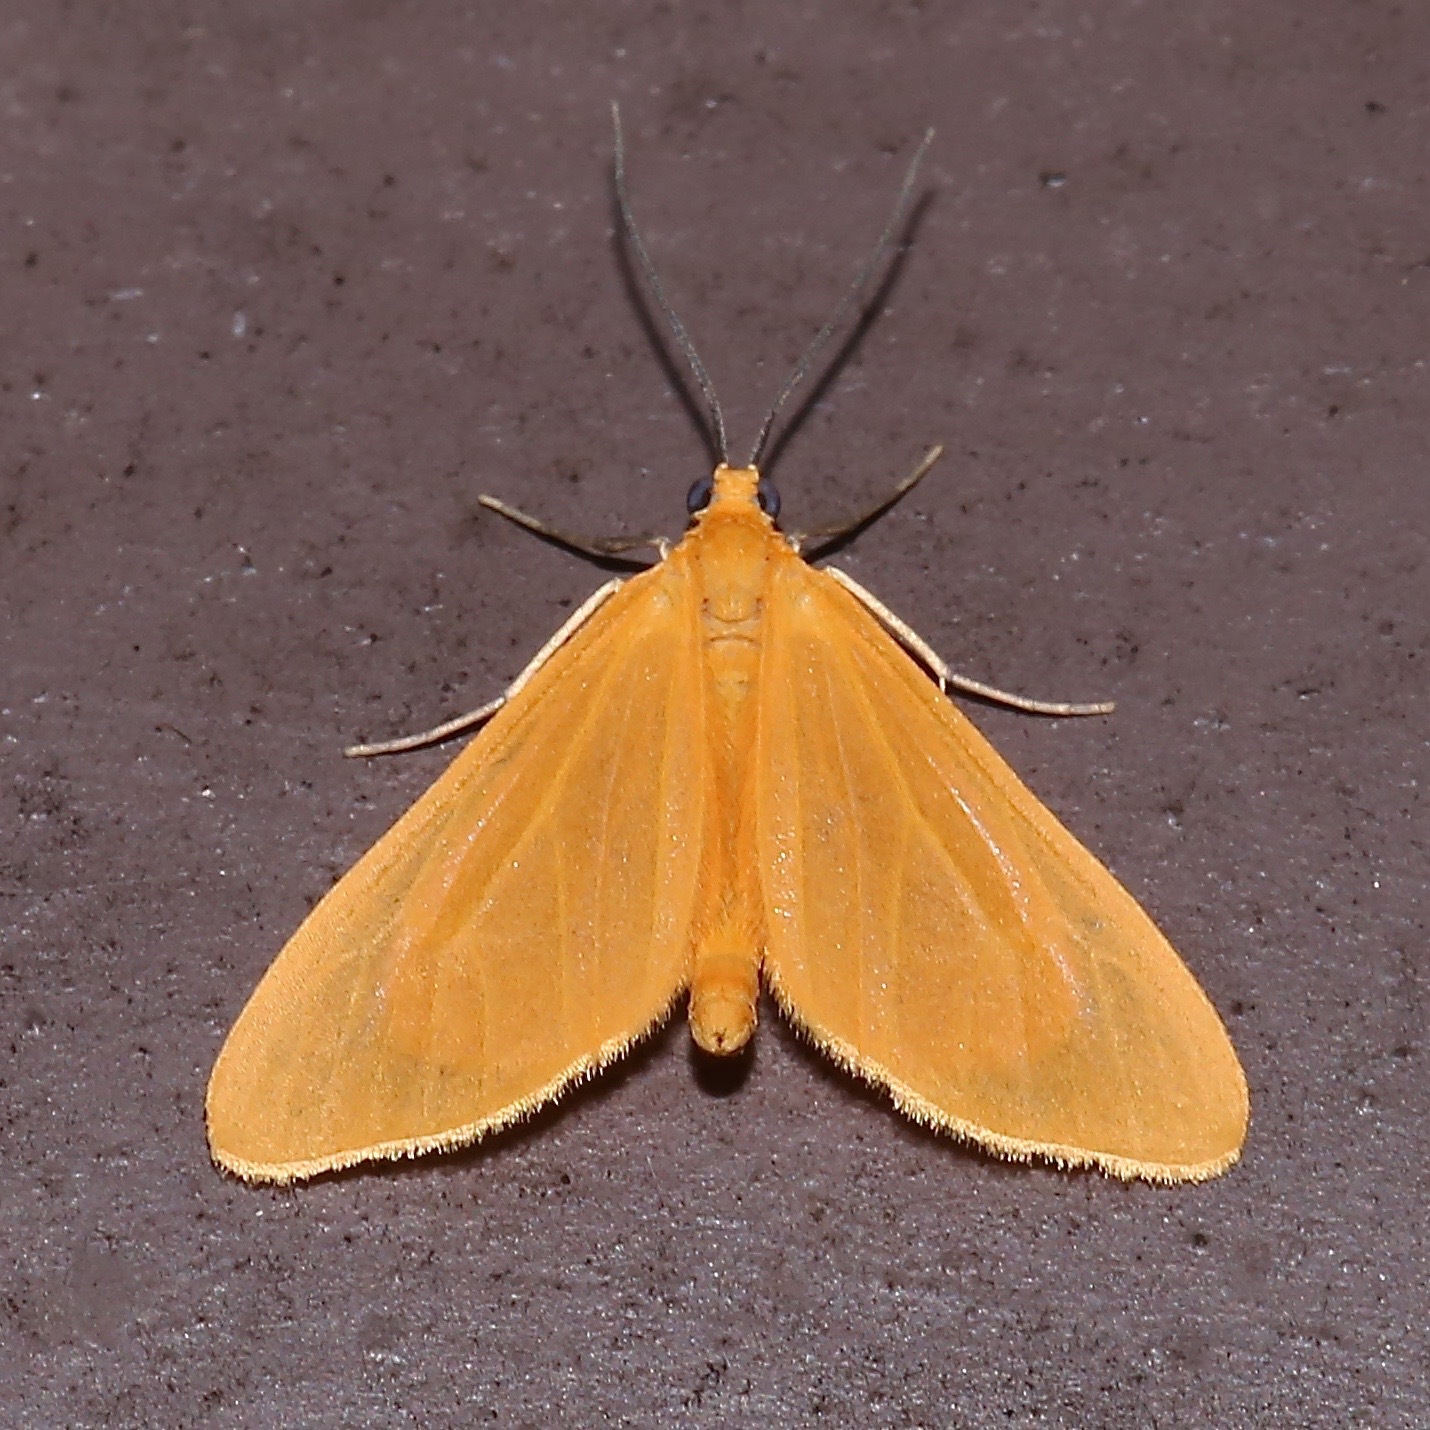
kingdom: Animalia
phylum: Arthropoda
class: Insecta
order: Lepidoptera
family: Geometridae
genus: Eubaphe
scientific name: Eubaphe unicolor
